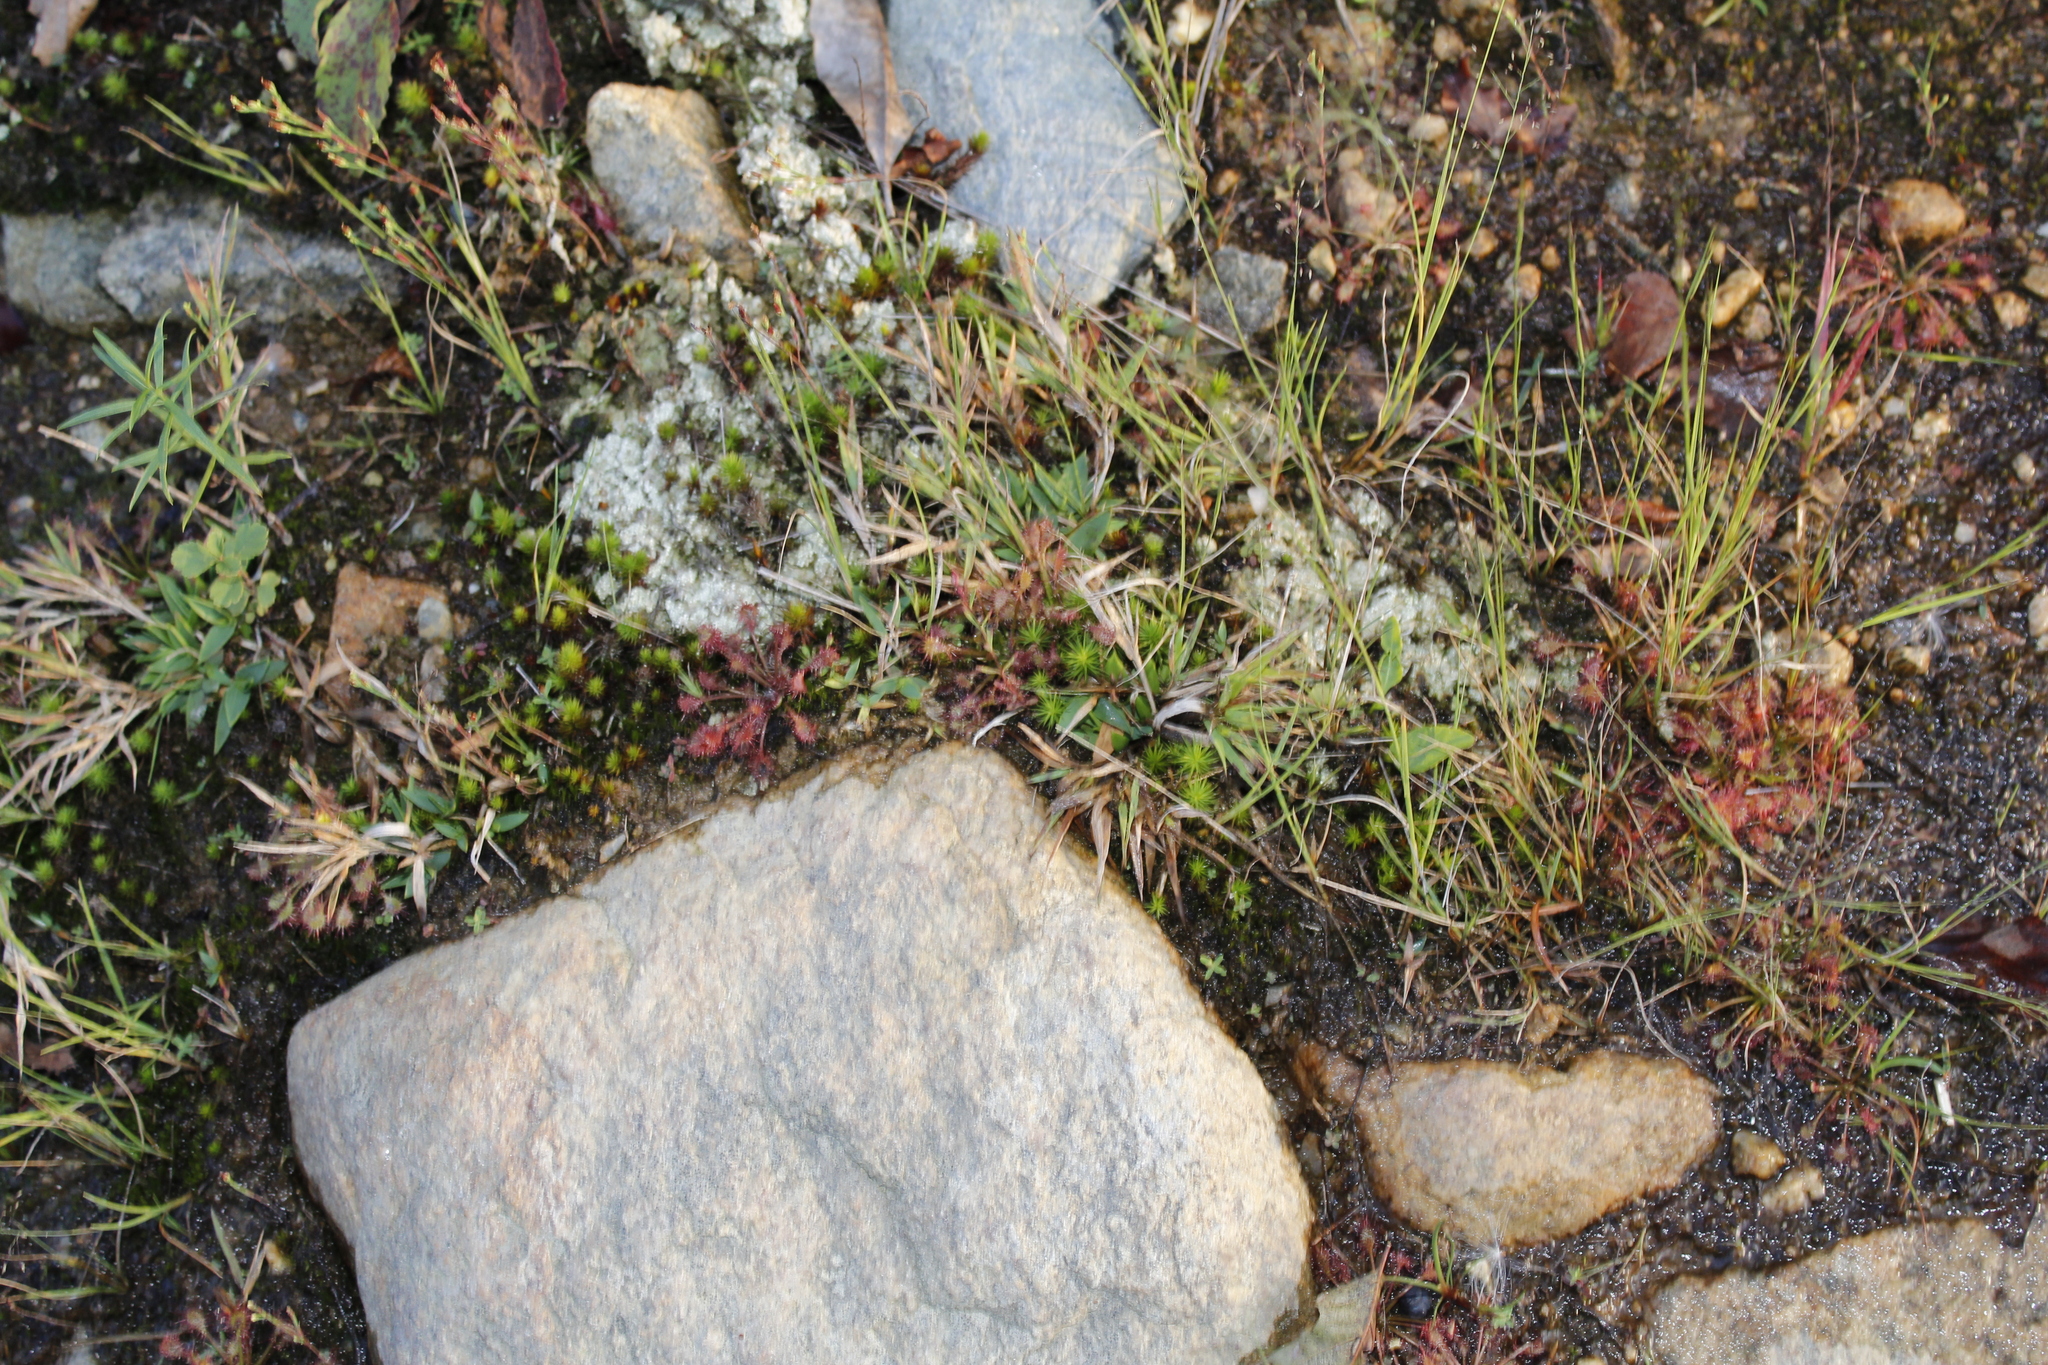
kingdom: Plantae
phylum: Tracheophyta
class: Magnoliopsida
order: Caryophyllales
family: Droseraceae
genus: Drosera
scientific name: Drosera intermedia
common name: Oblong-leaved sundew
